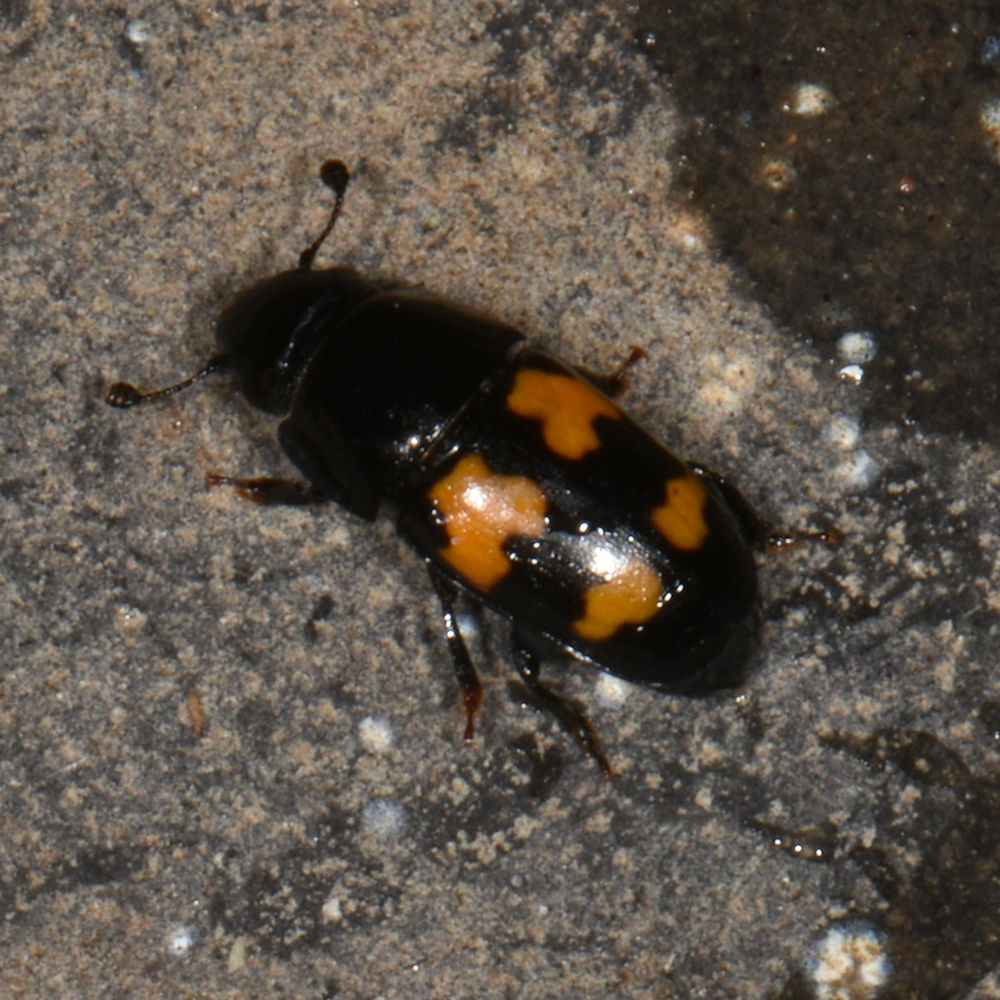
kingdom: Animalia
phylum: Arthropoda
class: Insecta
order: Coleoptera
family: Nitidulidae
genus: Glischrochilus
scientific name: Glischrochilus fasciatus
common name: Picnic beetle
